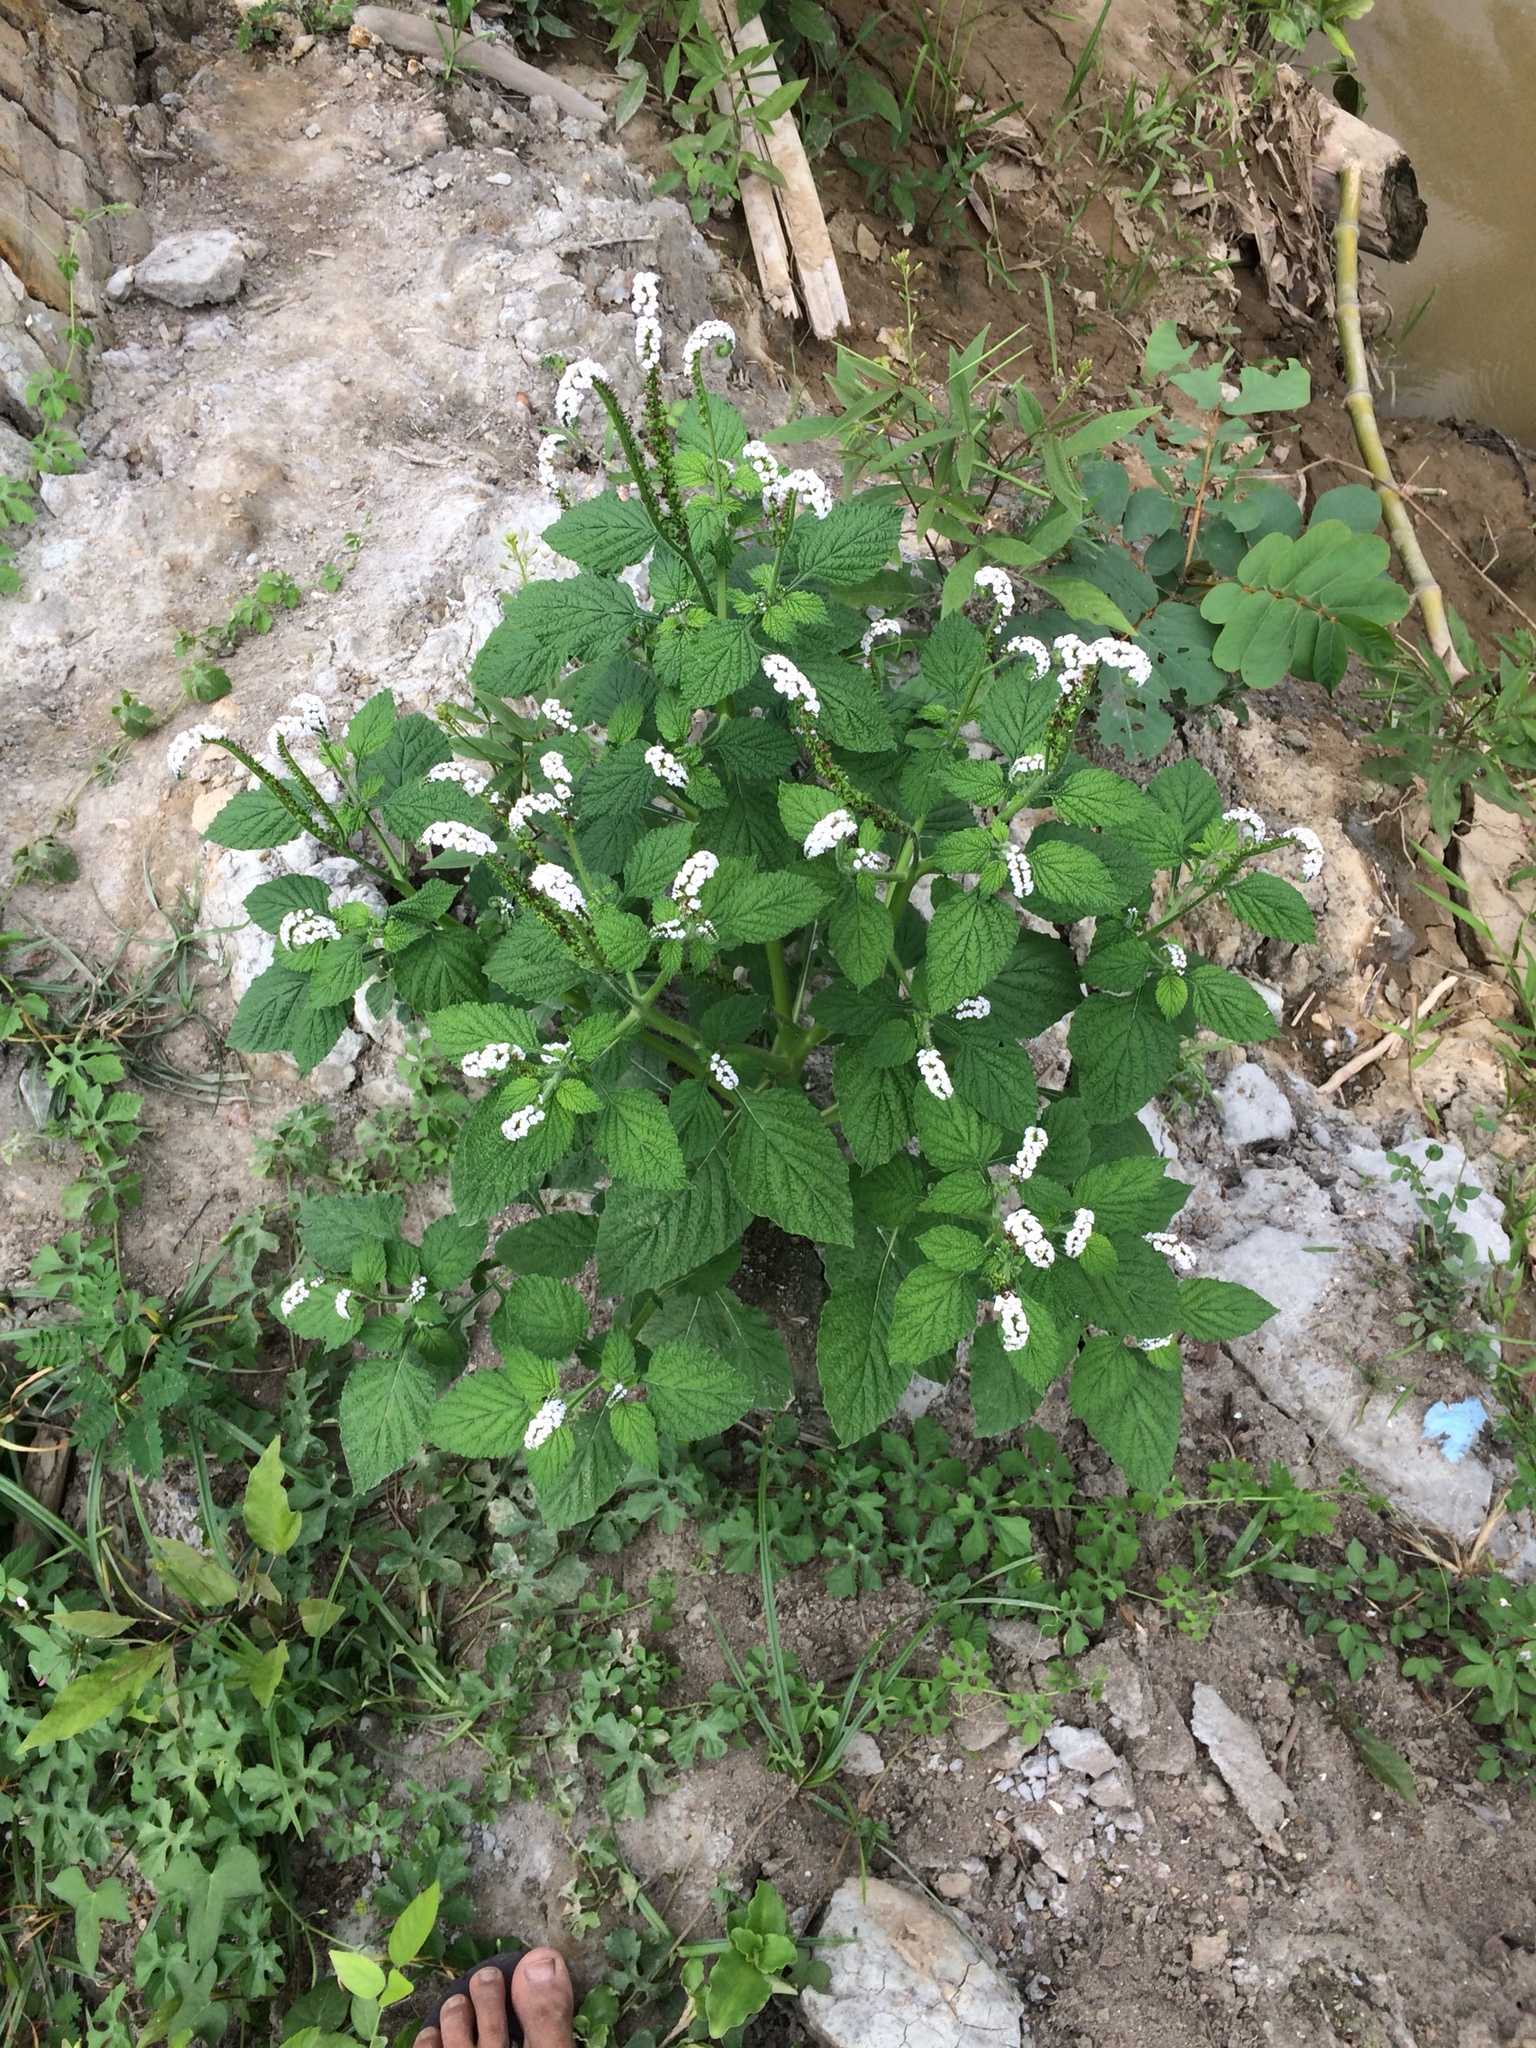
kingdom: Plantae
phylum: Tracheophyta
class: Magnoliopsida
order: Boraginales
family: Heliotropiaceae
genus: Heliotropium
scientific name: Heliotropium indicum
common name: Indian heliotrope
